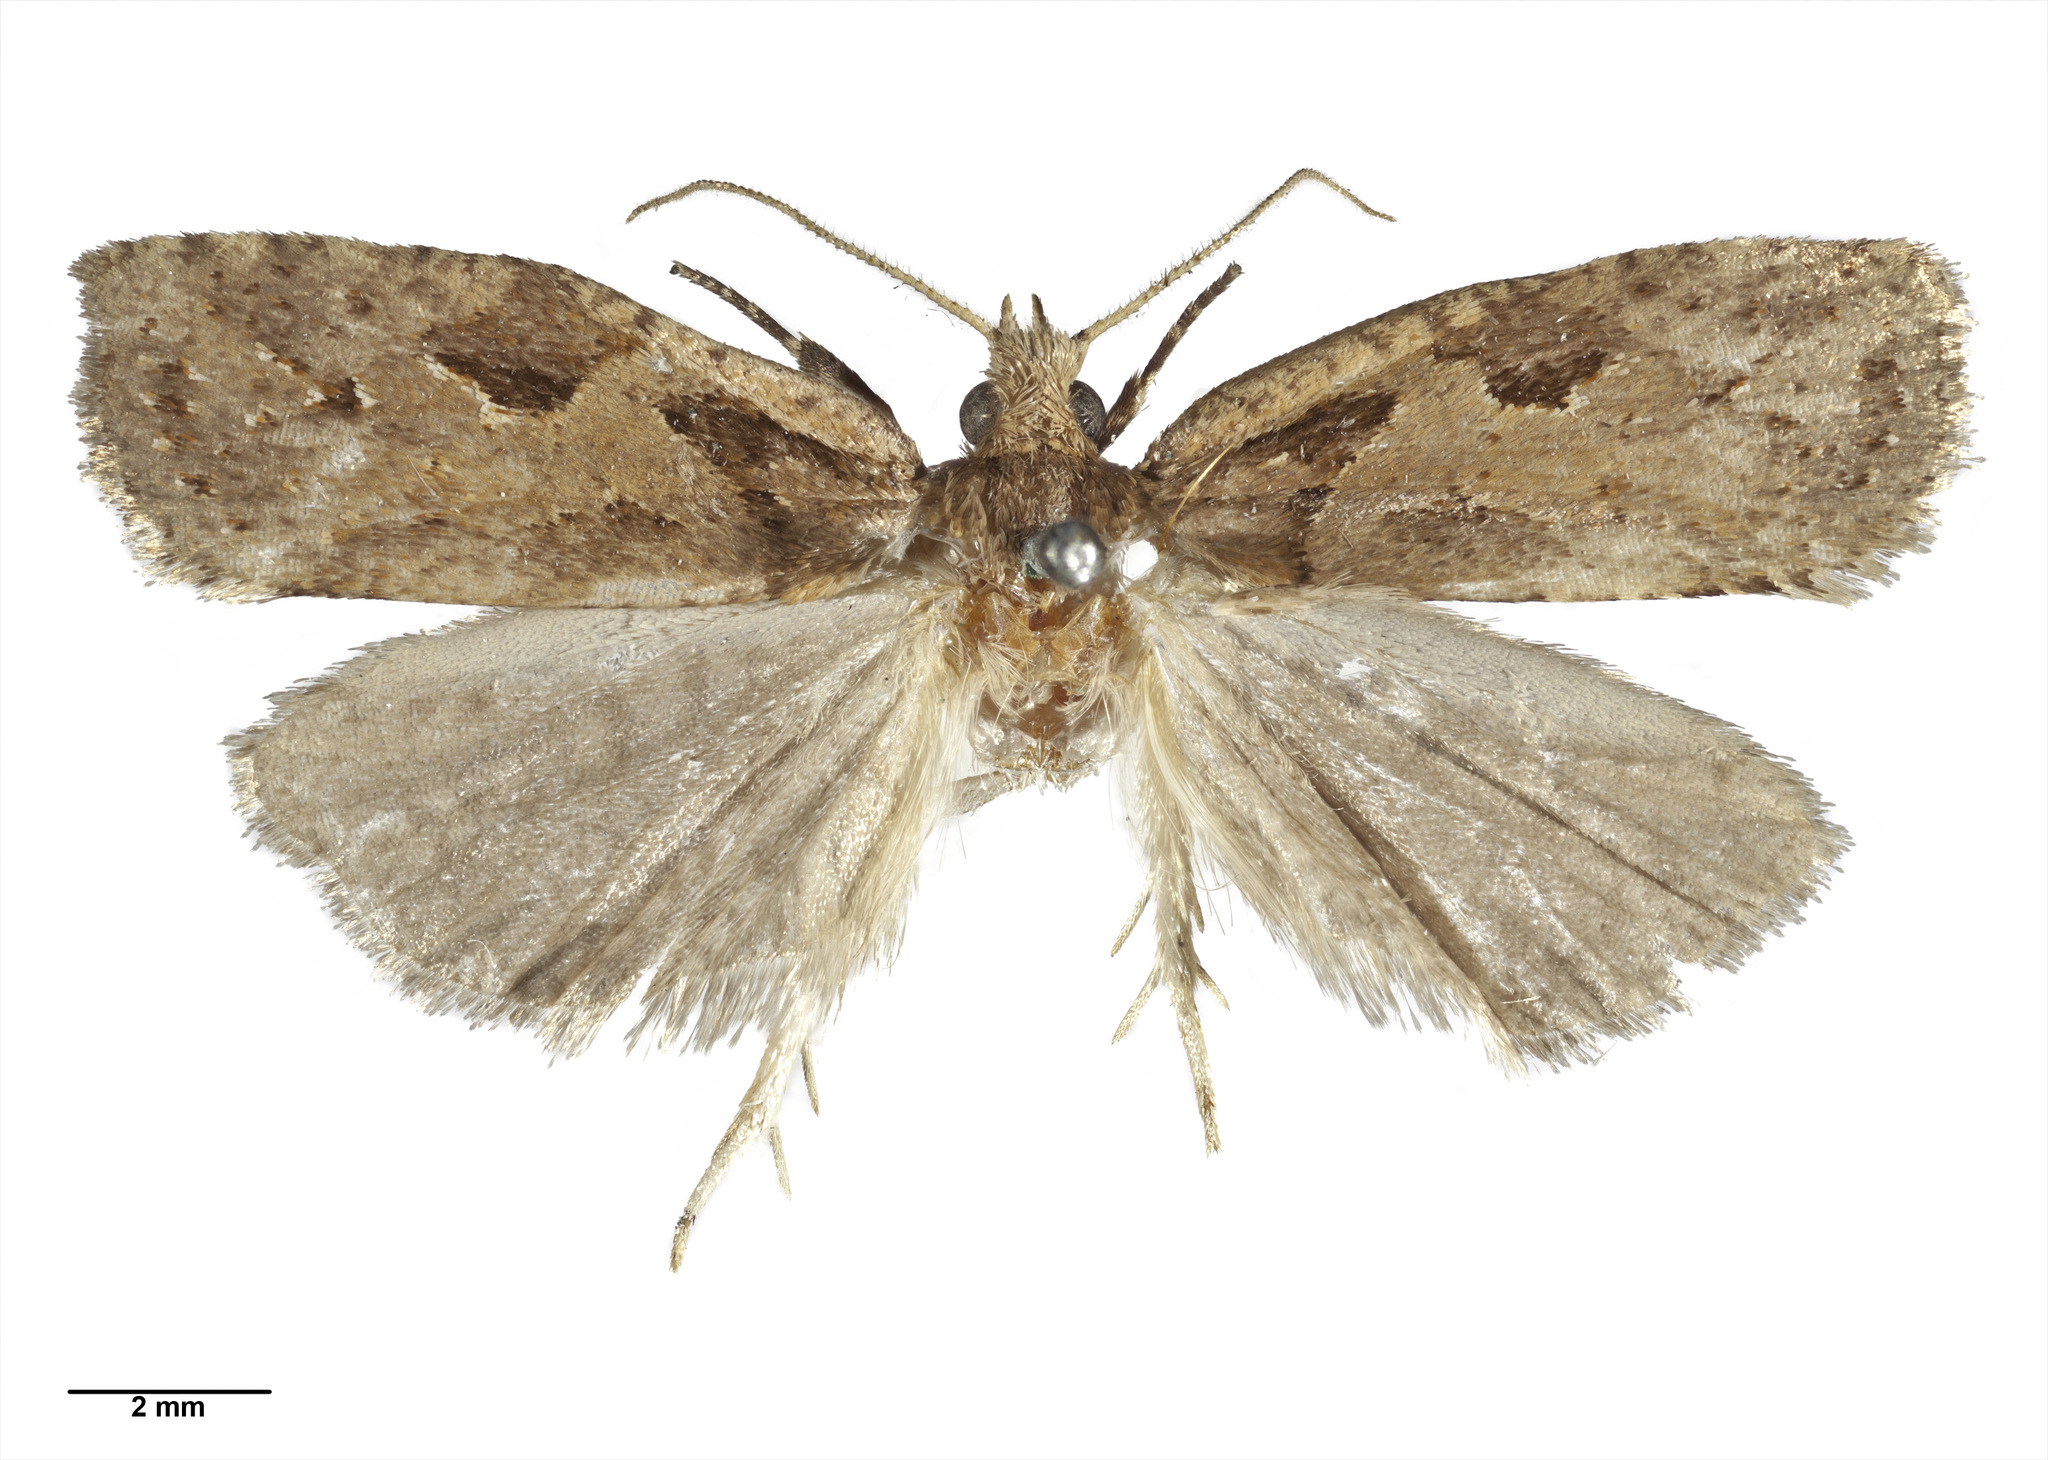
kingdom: Animalia
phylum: Arthropoda
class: Insecta
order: Lepidoptera
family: Tortricidae
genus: Ctenopseustis
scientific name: Ctenopseustis fraterna
